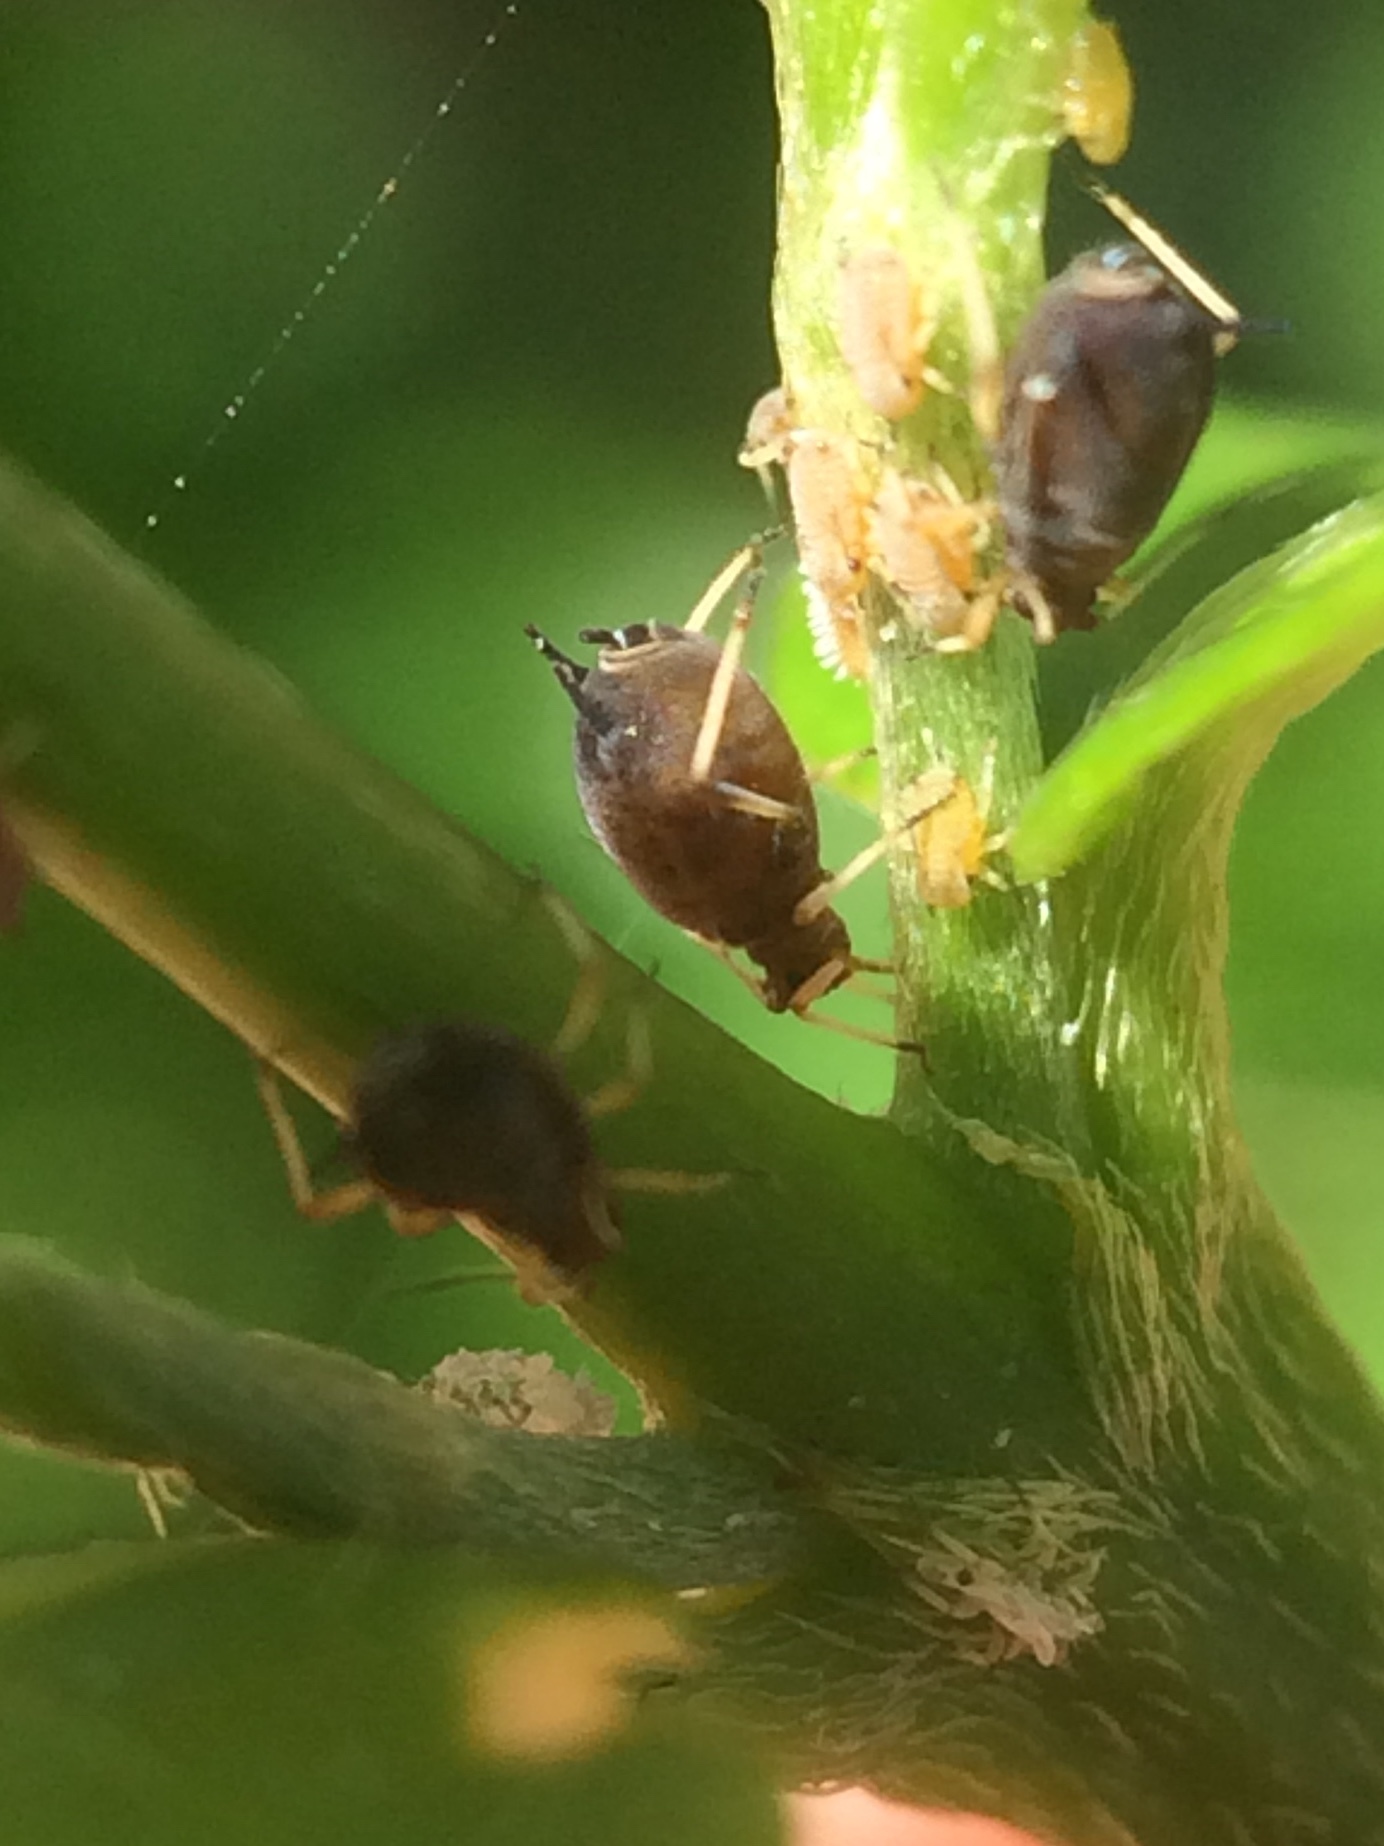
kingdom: Animalia
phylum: Arthropoda
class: Insecta
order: Hemiptera
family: Aphididae
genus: Aphis
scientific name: Aphis craccivora
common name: Cowpea aphid
